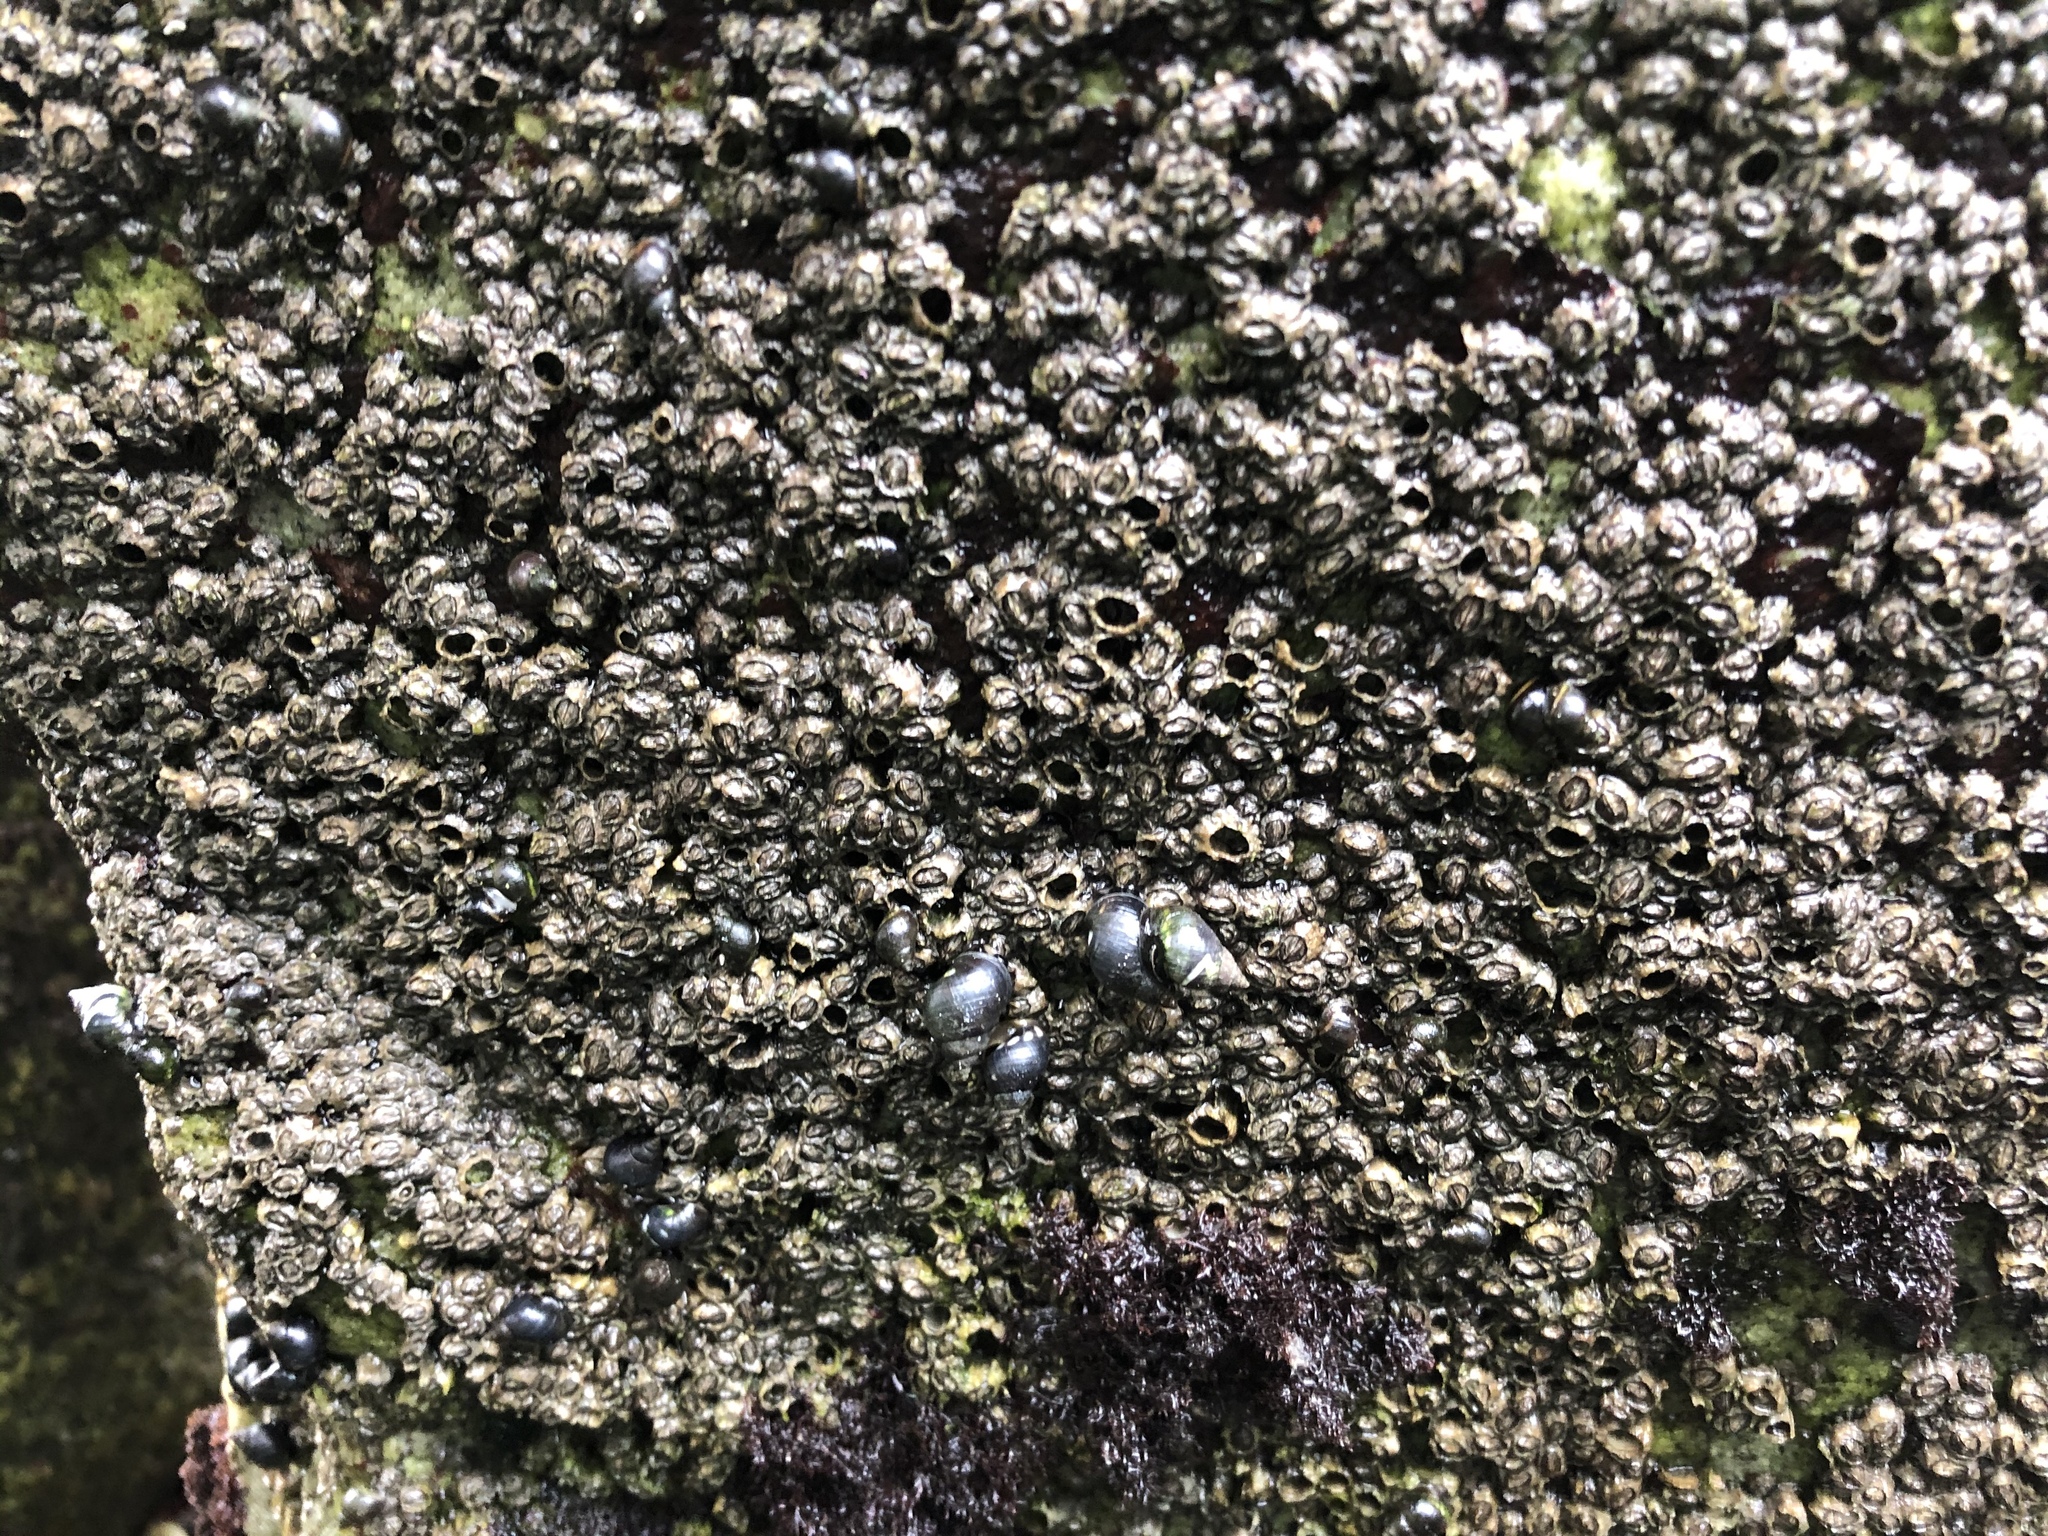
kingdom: Animalia
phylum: Mollusca
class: Gastropoda
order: Littorinimorpha
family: Littorinidae
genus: Echinolittorina
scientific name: Echinolittorina peruviana
